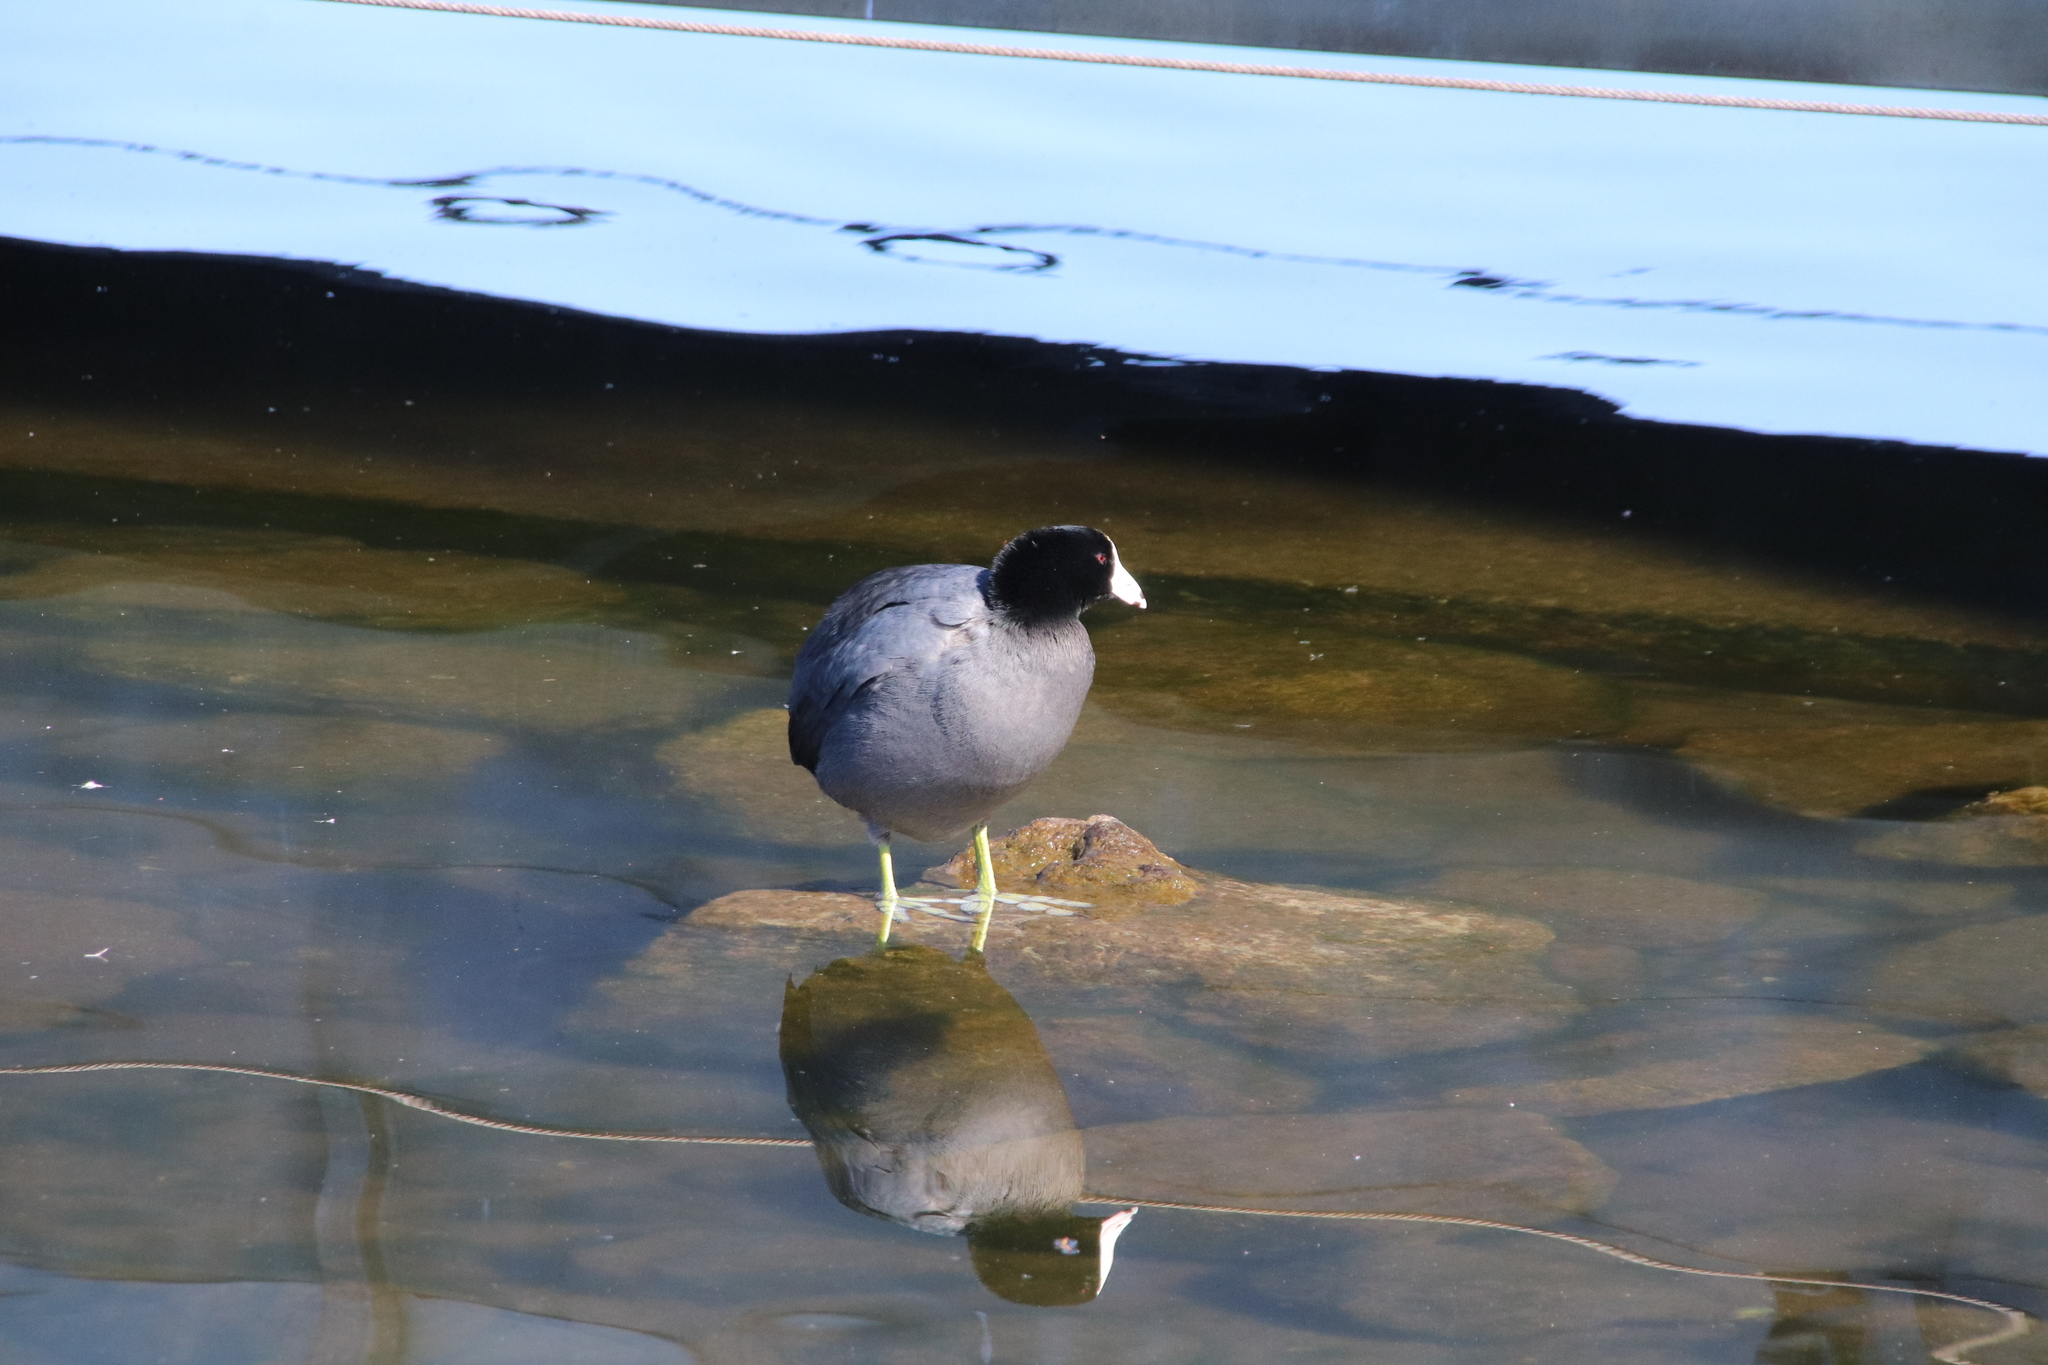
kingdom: Animalia
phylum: Chordata
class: Aves
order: Gruiformes
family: Rallidae
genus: Fulica
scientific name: Fulica americana
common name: American coot
